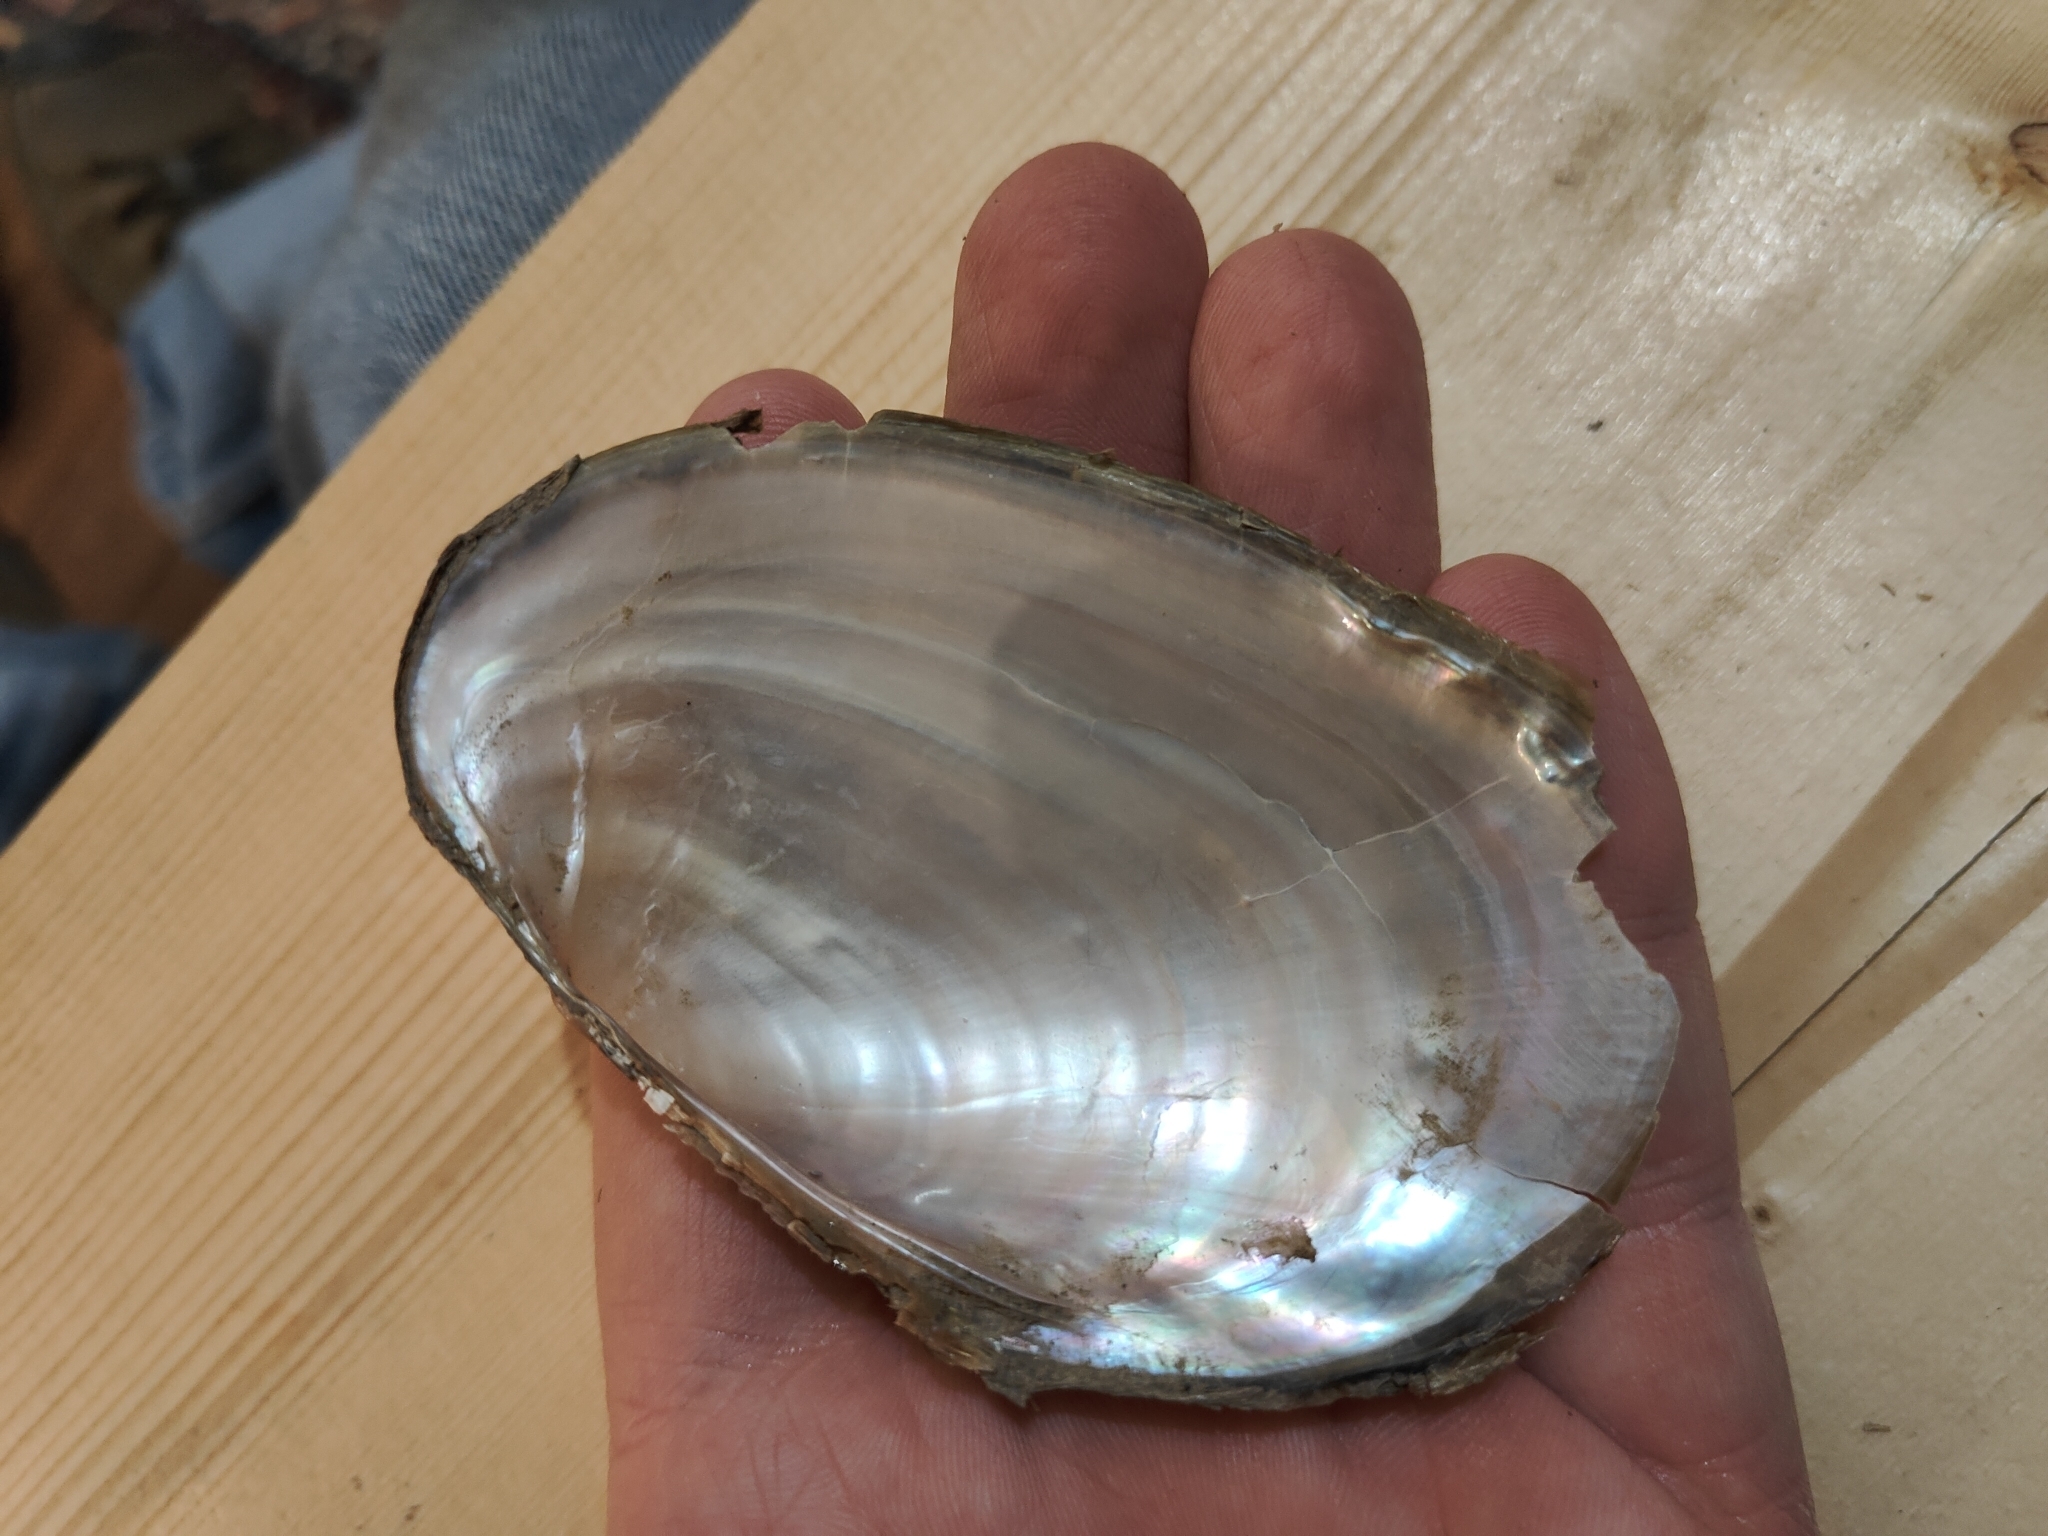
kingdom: Animalia
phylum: Mollusca
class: Bivalvia
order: Unionida
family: Unionidae
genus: Potamilus
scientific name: Potamilus fragilis
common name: Fragile papershell
